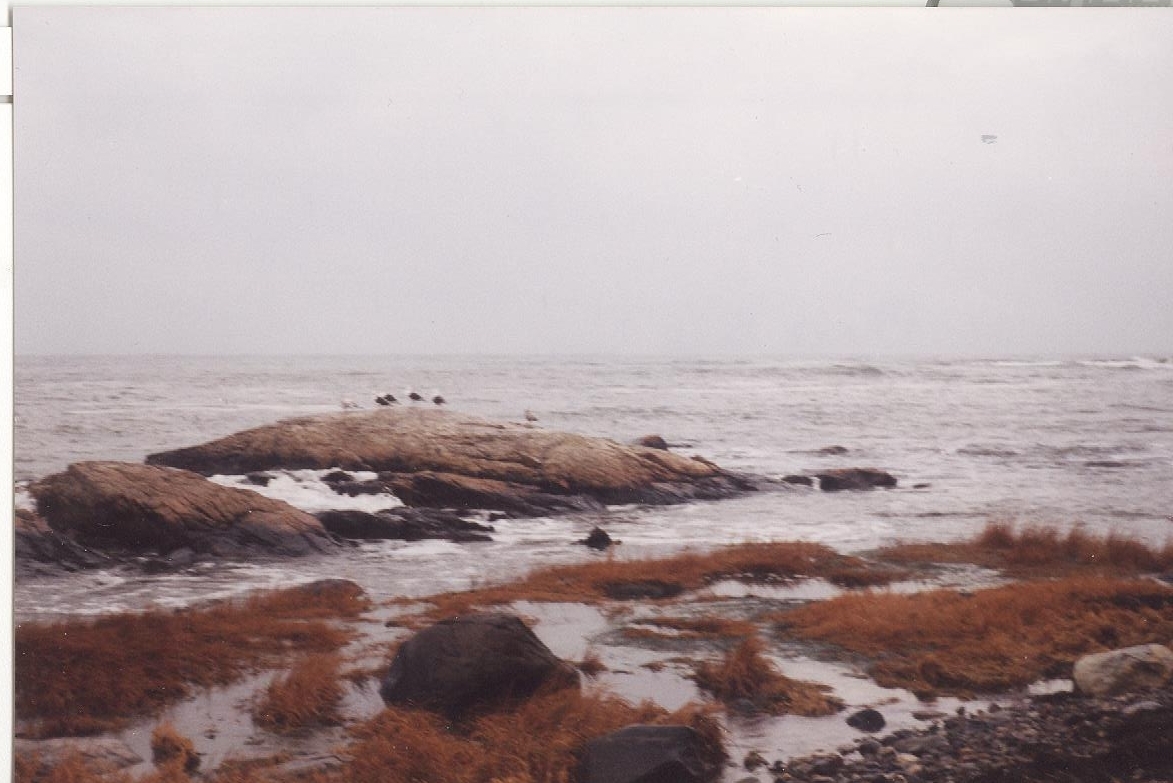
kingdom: Animalia
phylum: Chordata
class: Aves
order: Charadriiformes
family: Laridae
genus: Larus
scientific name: Larus marinus
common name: Great black-backed gull
